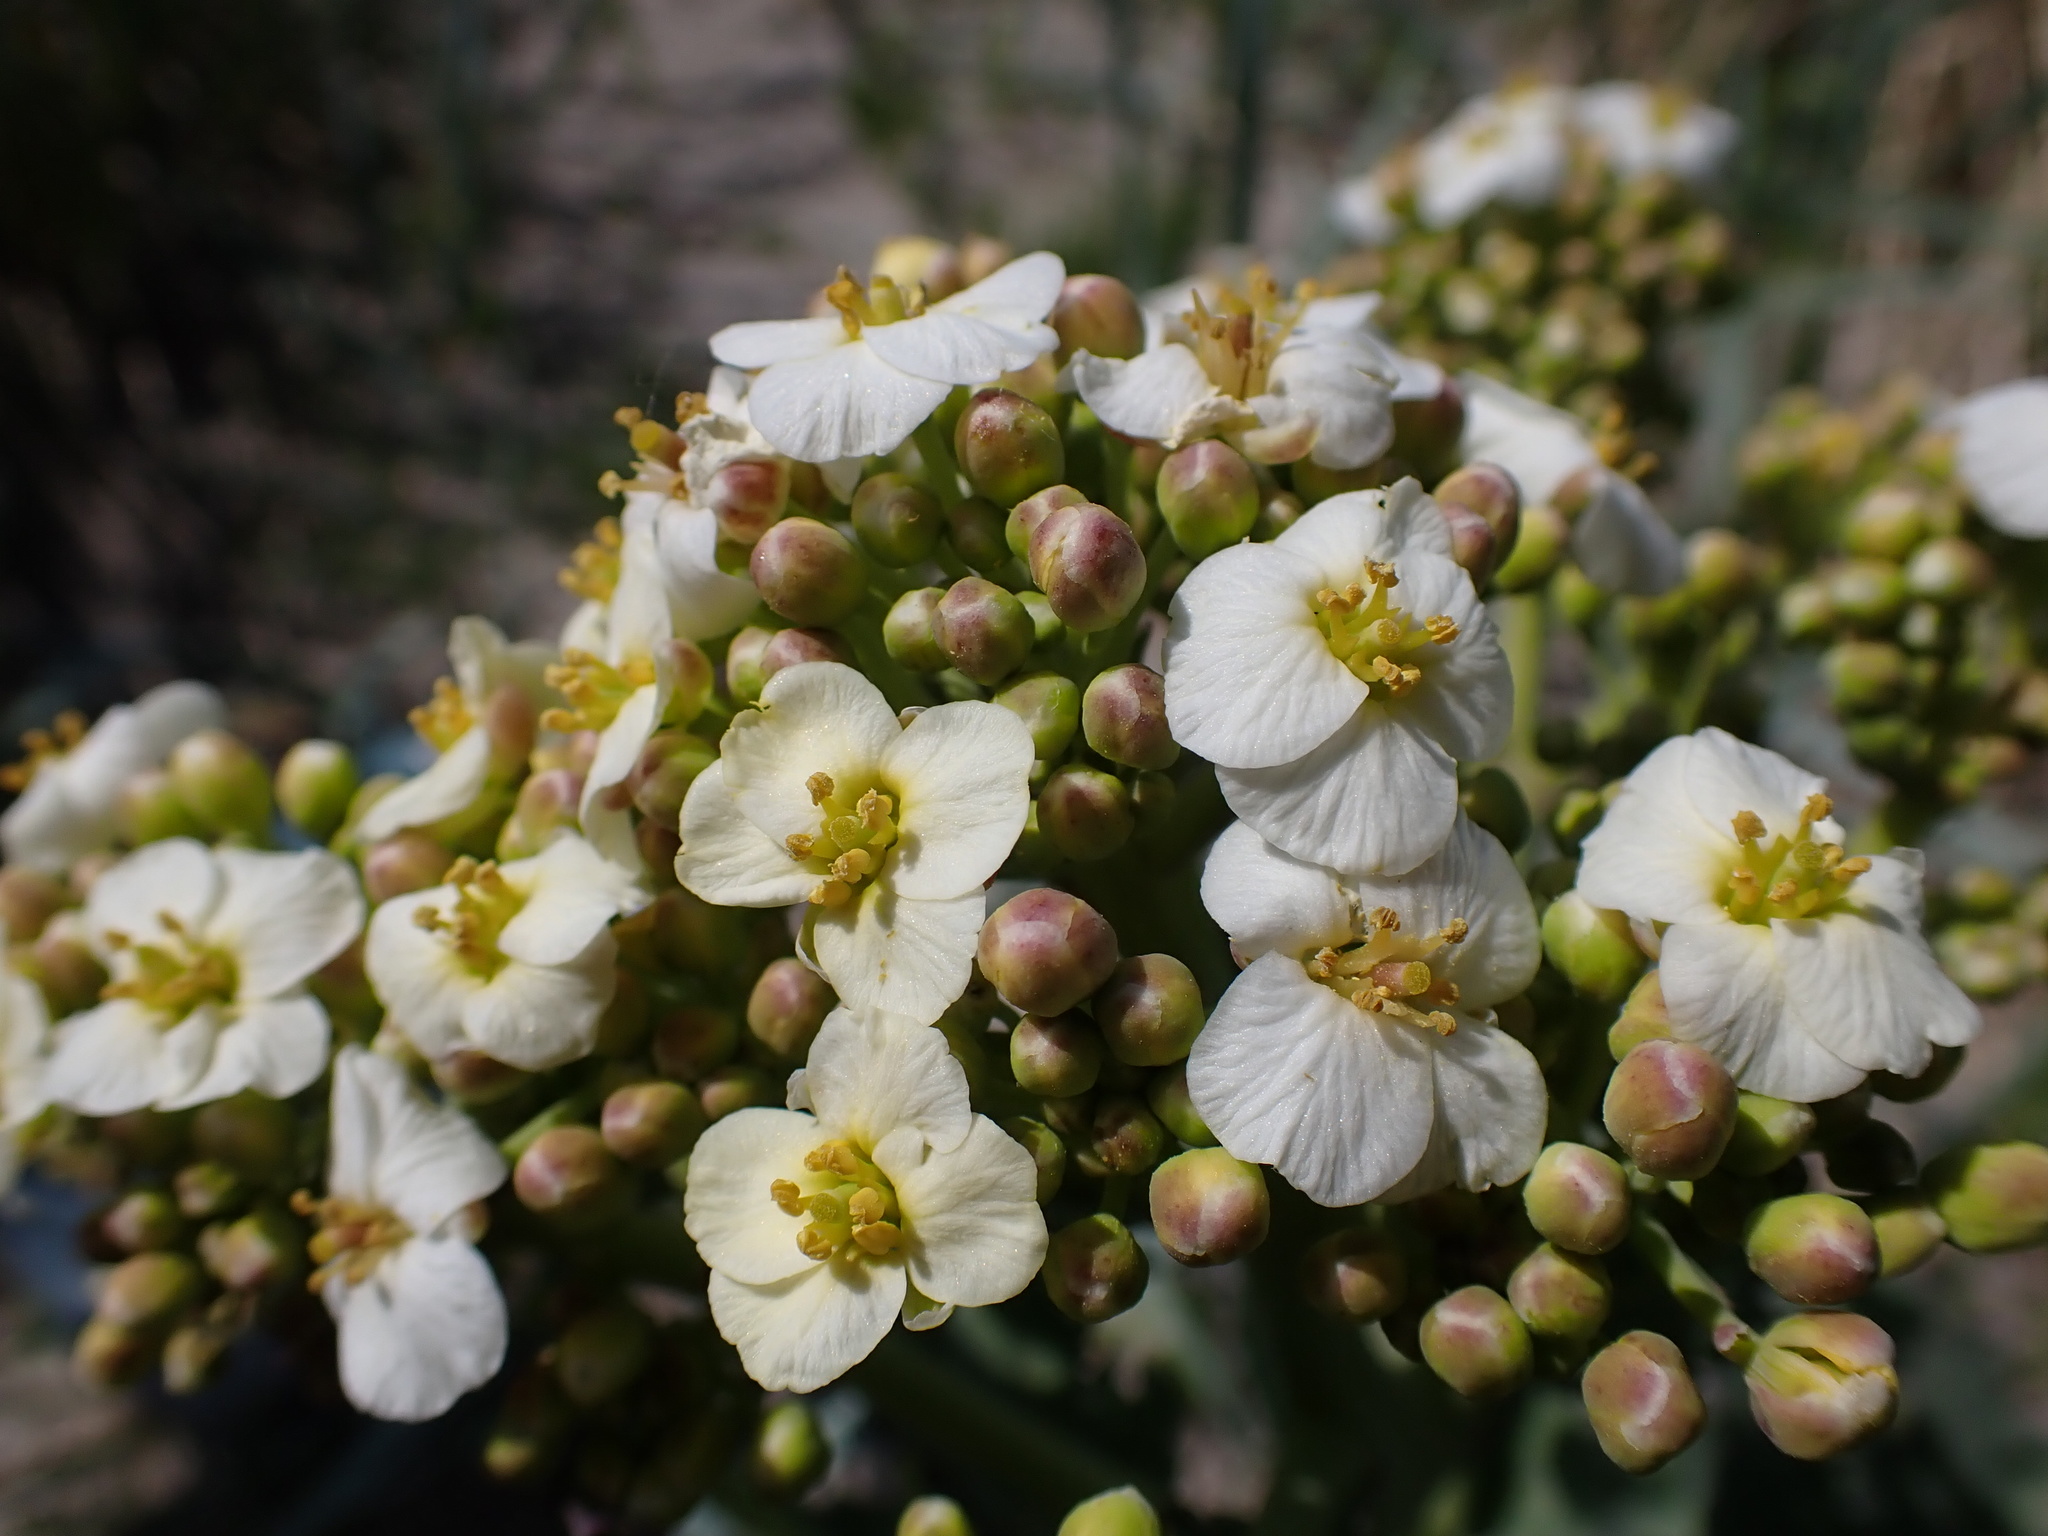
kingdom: Plantae
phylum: Tracheophyta
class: Magnoliopsida
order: Brassicales
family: Brassicaceae
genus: Crambe
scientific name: Crambe maritima
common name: Sea-kale
